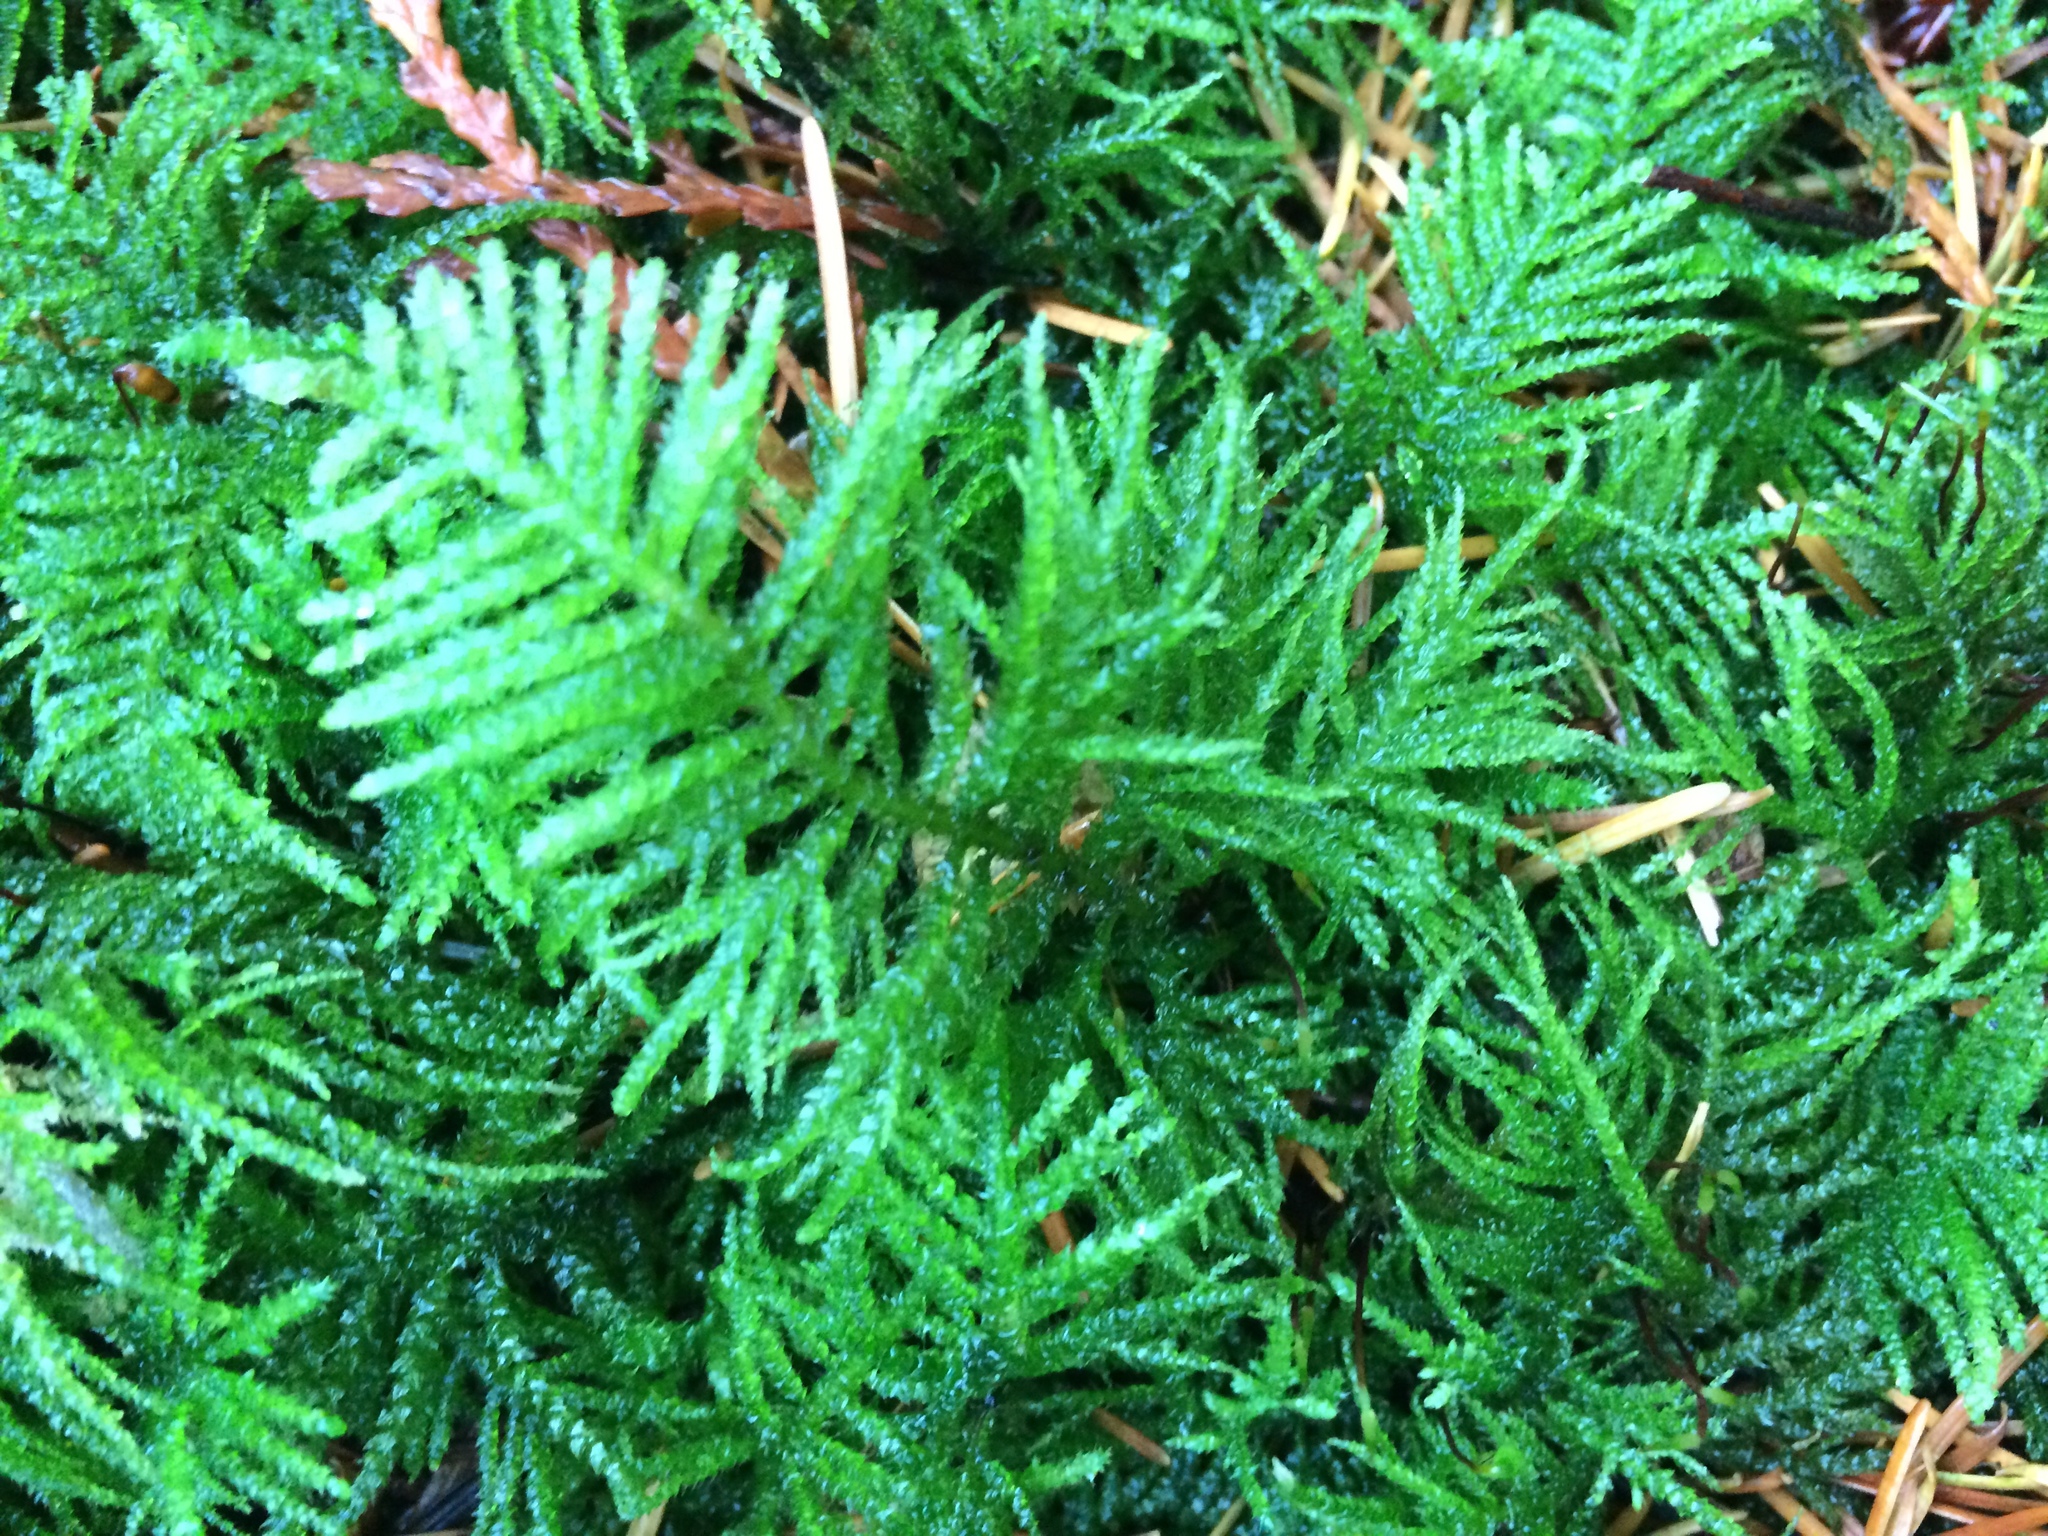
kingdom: Plantae
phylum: Bryophyta
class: Bryopsida
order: Hypnales
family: Brachytheciaceae
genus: Kindbergia
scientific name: Kindbergia oregana
